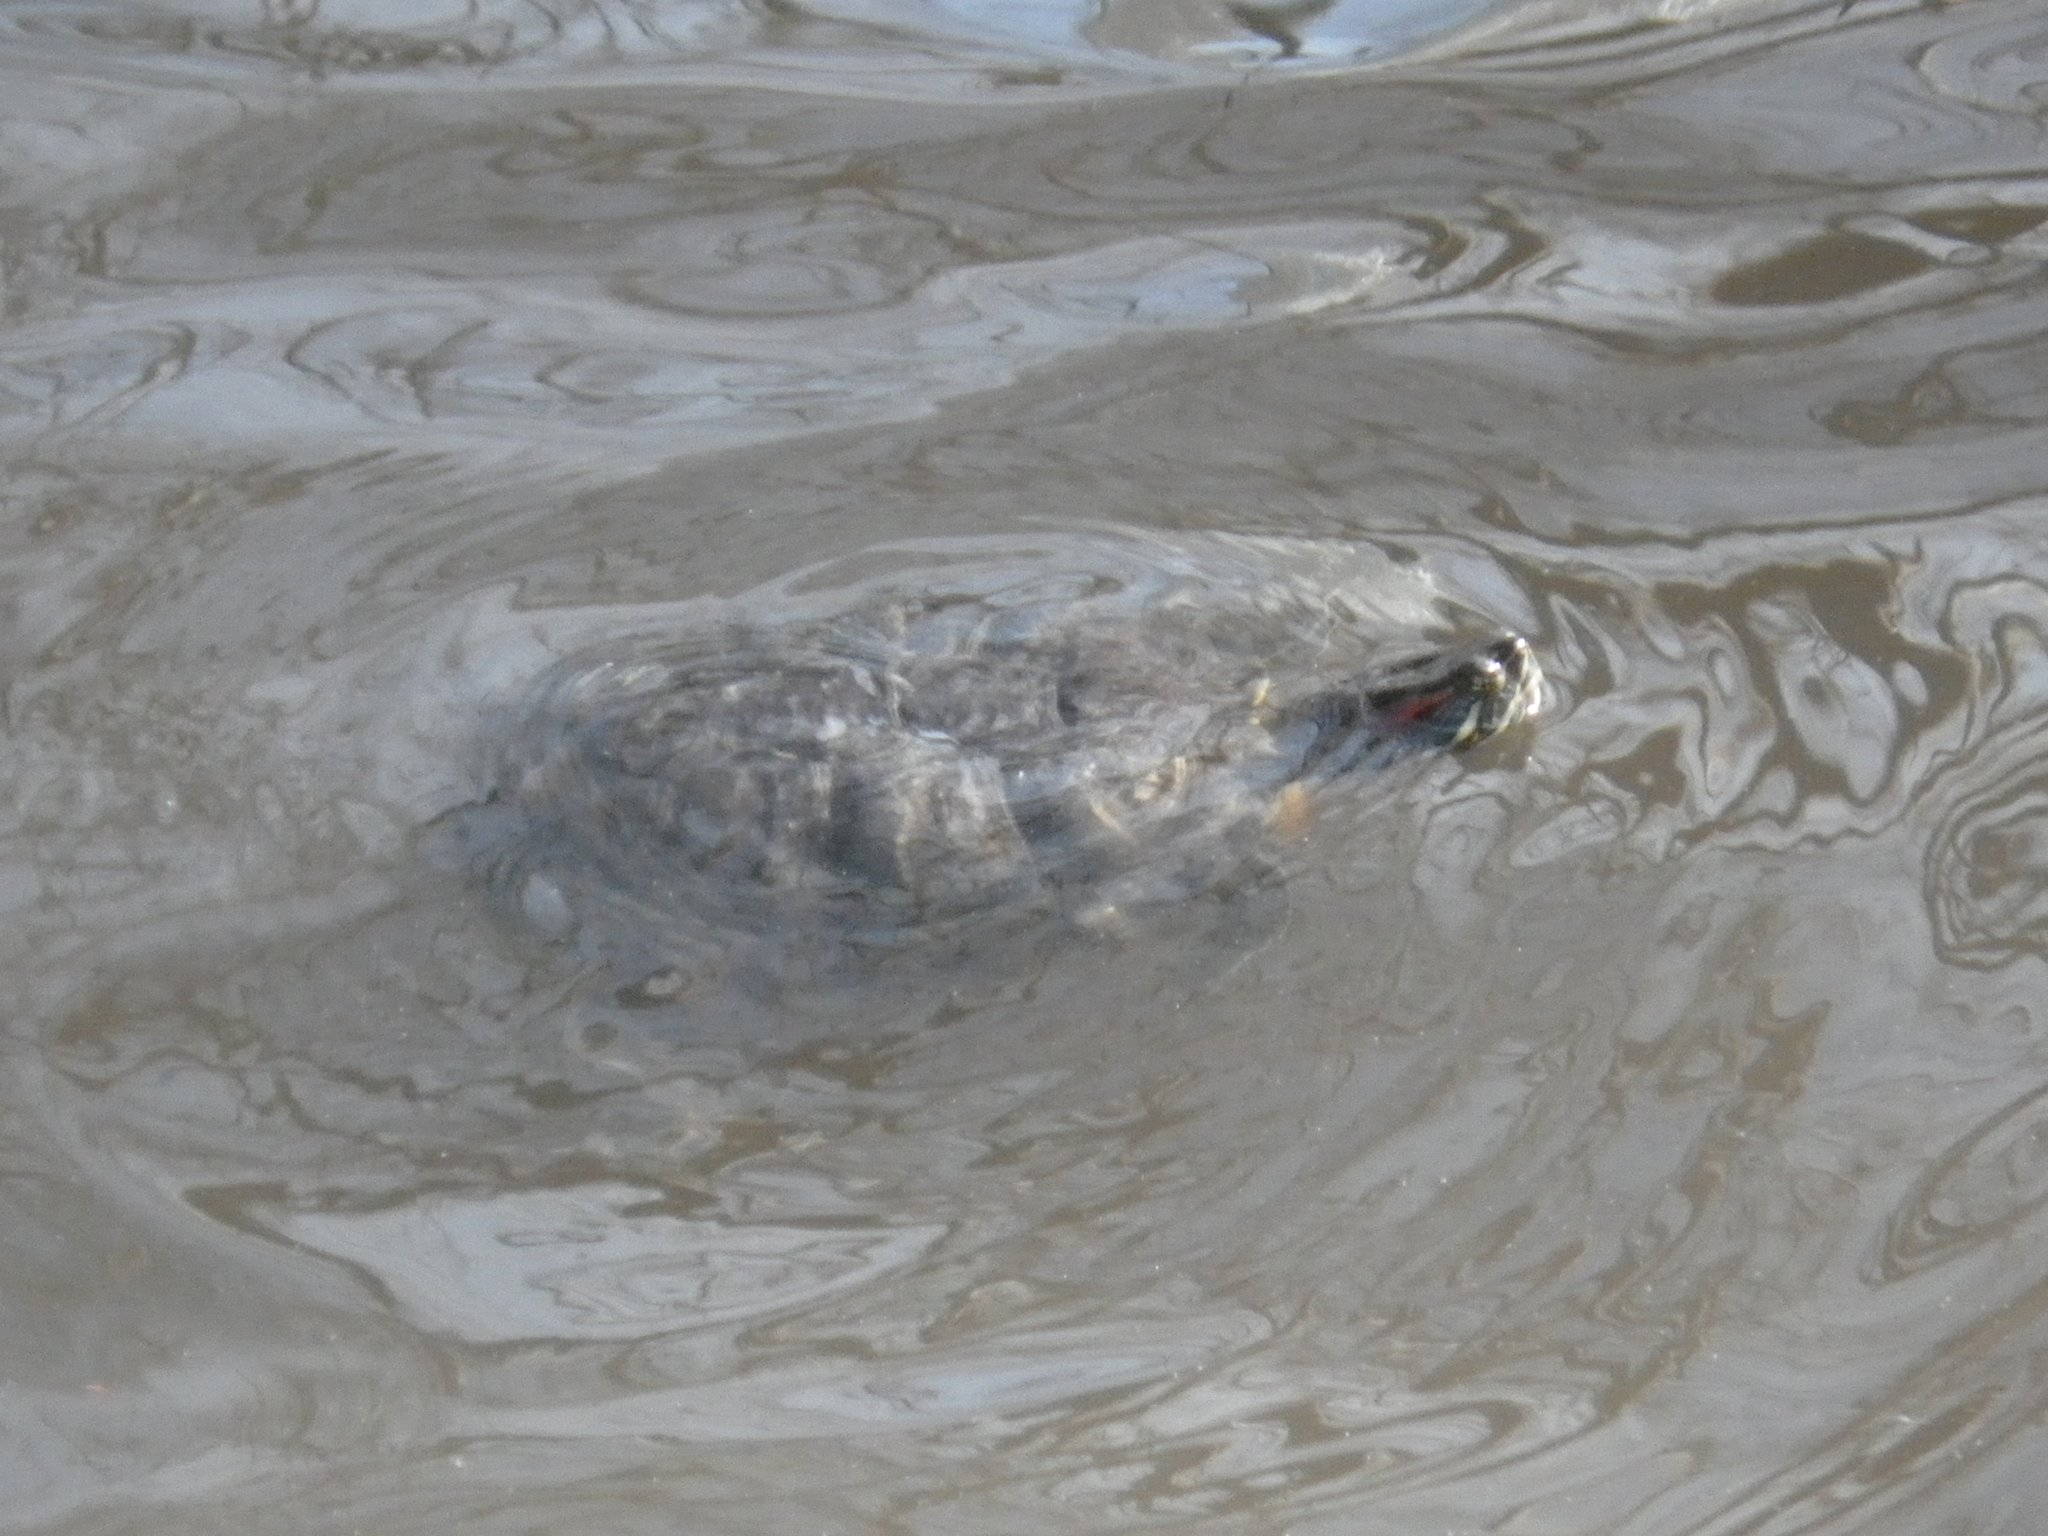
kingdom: Animalia
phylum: Chordata
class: Testudines
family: Emydidae
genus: Trachemys
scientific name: Trachemys scripta
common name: Slider
